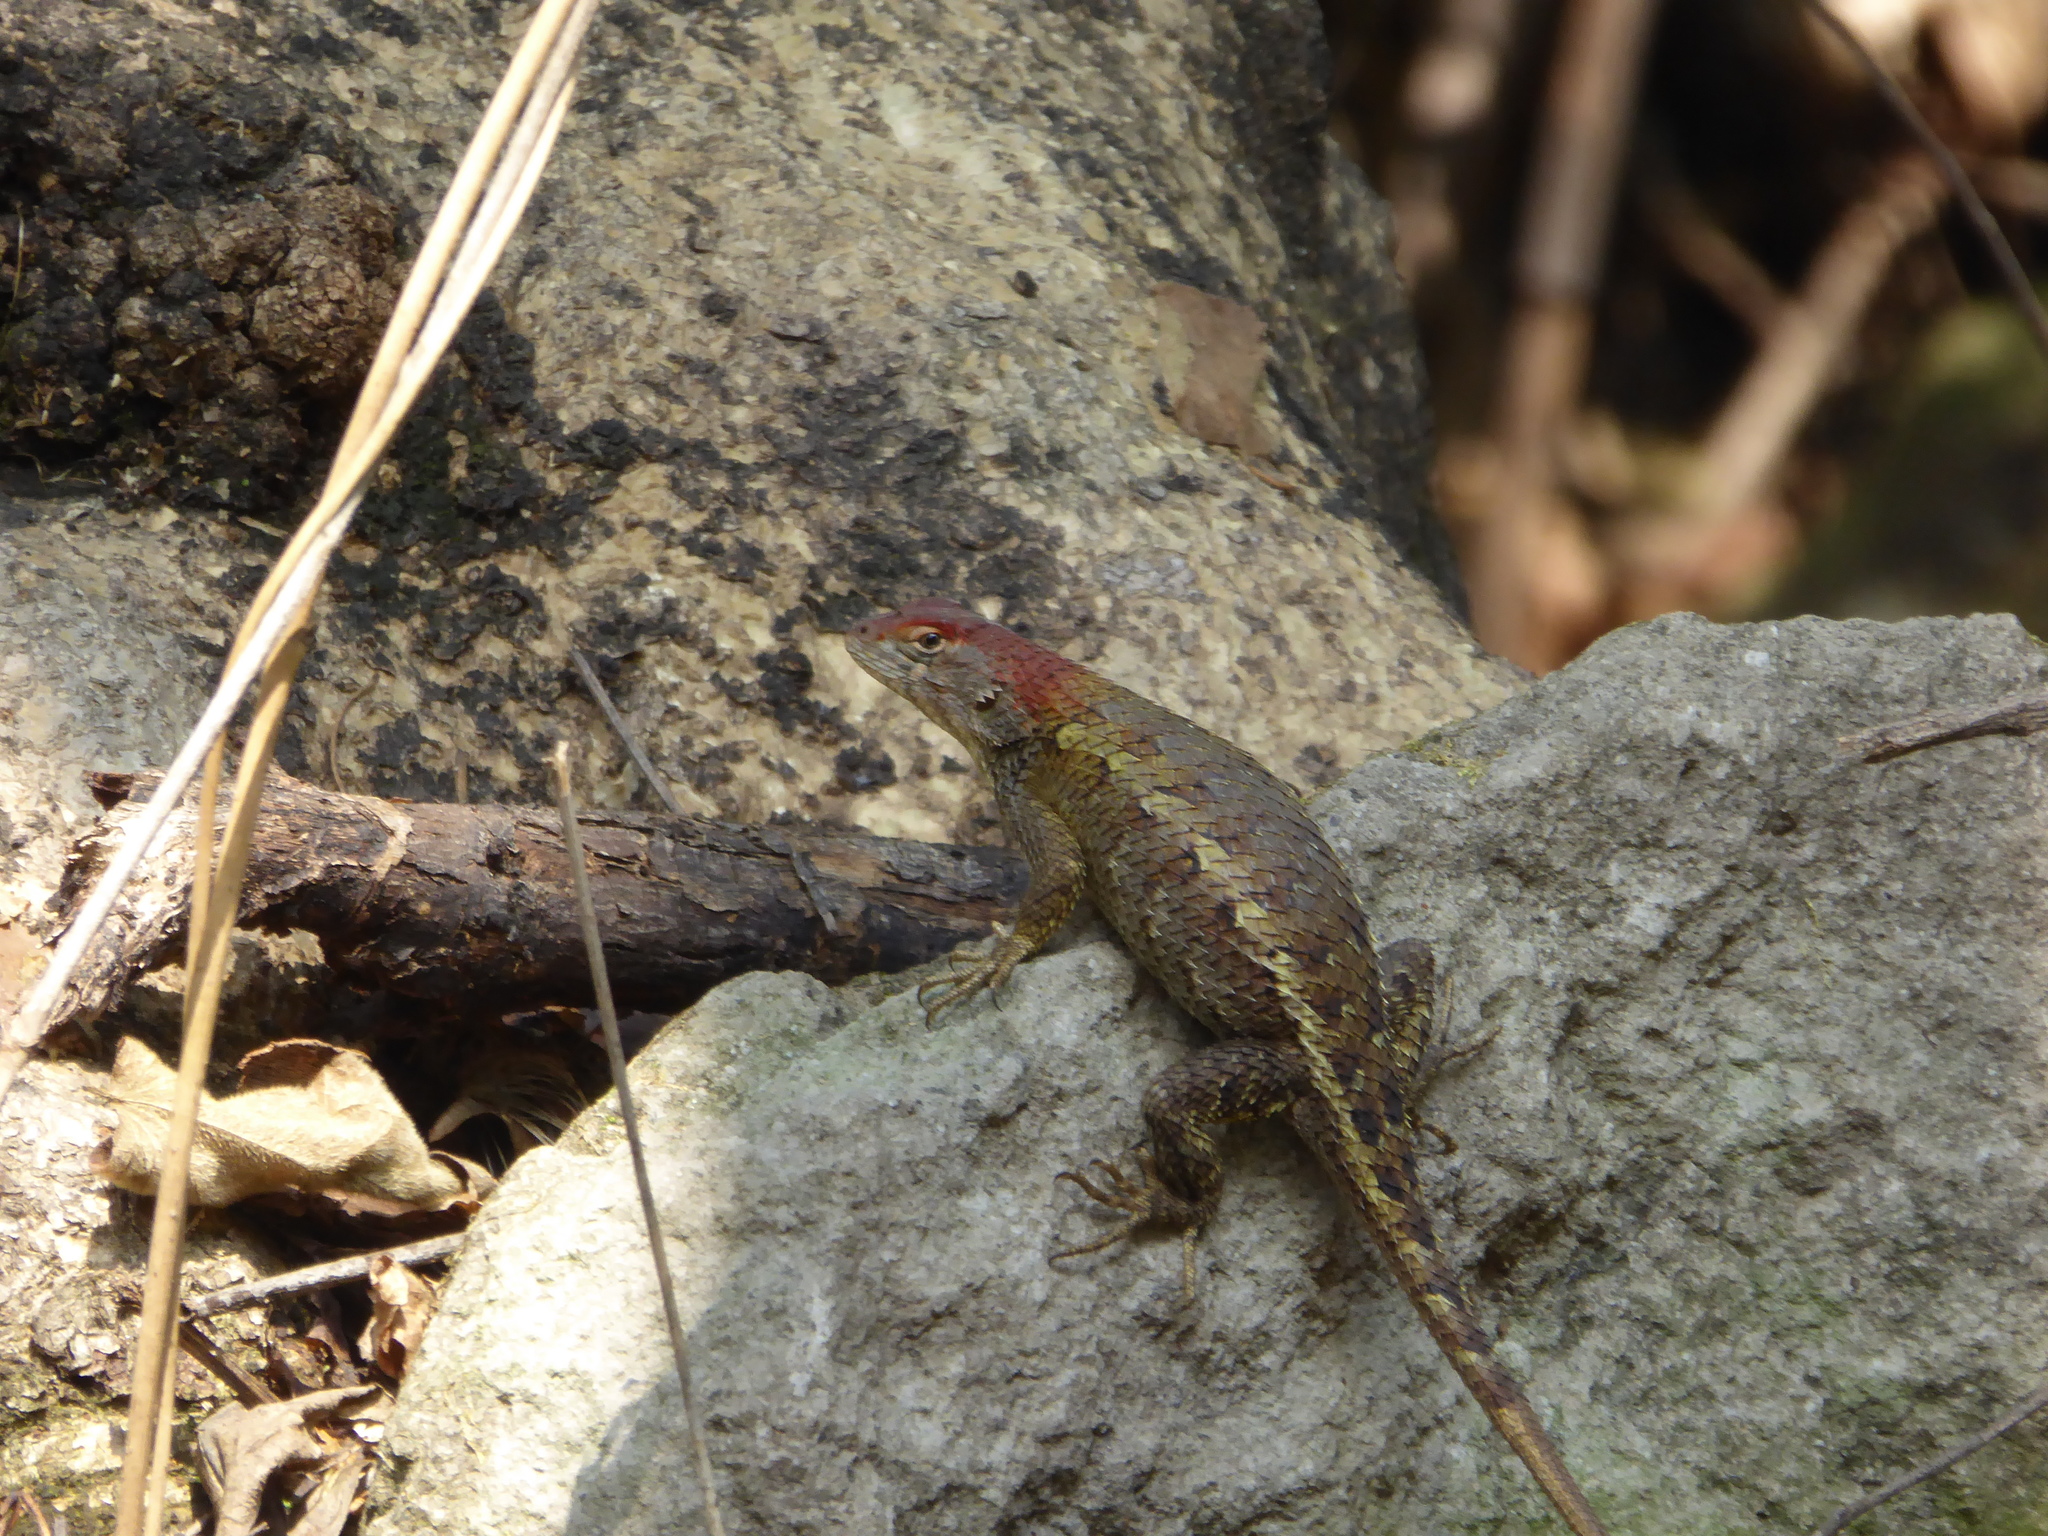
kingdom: Animalia
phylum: Chordata
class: Squamata
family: Phrynosomatidae
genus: Sceloporus
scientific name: Sceloporus horridus
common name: Few-pored rough lizard
